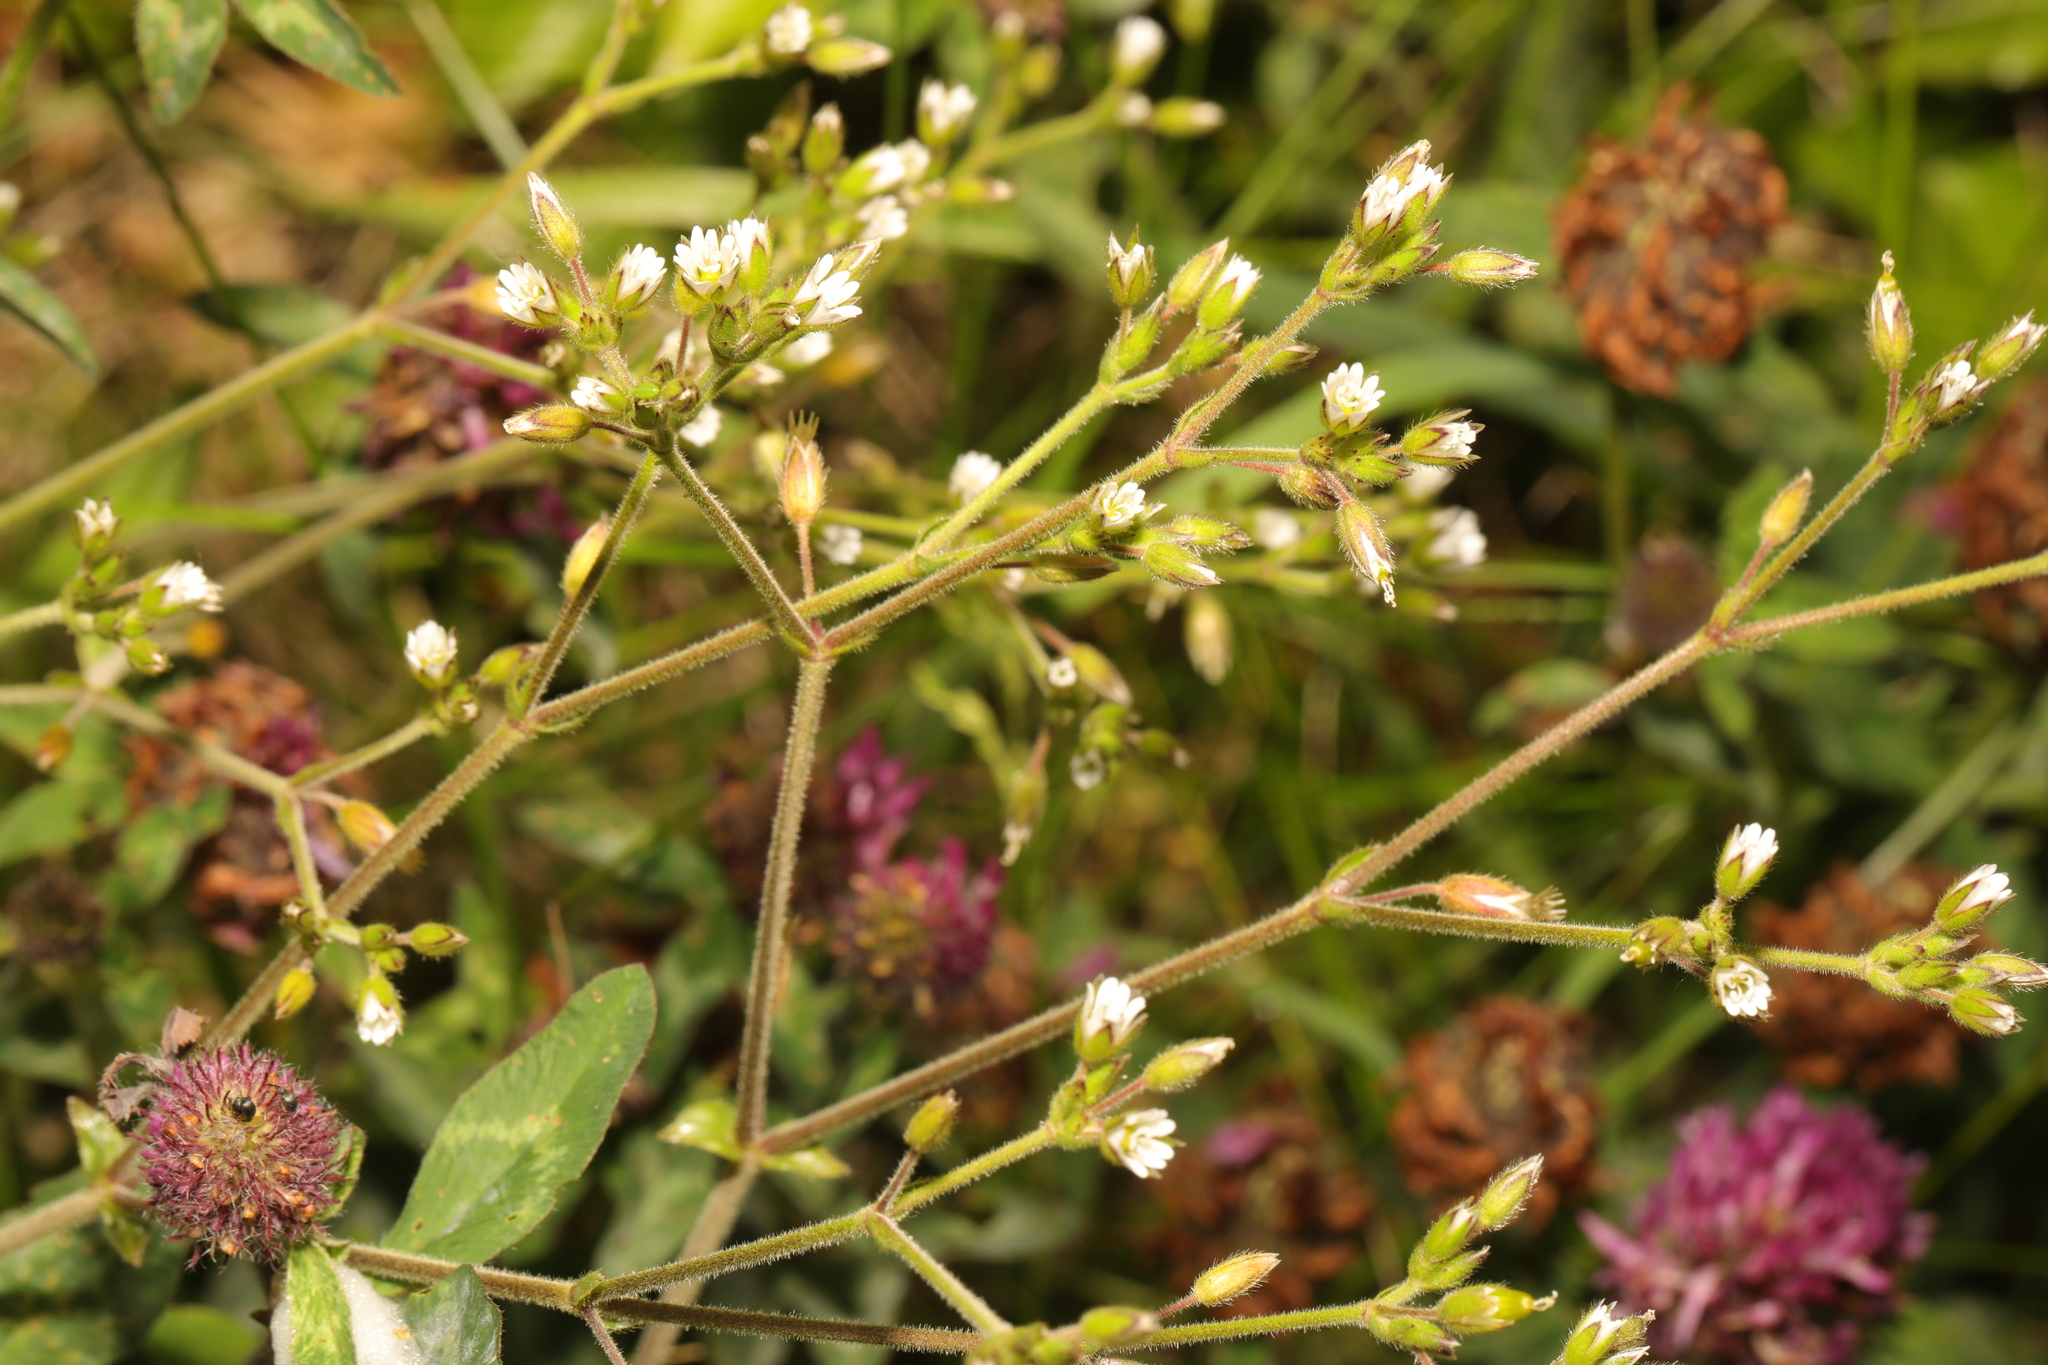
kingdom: Plantae
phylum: Tracheophyta
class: Magnoliopsida
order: Caryophyllales
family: Caryophyllaceae
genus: Cerastium
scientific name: Cerastium fontanum
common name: Common mouse-ear
